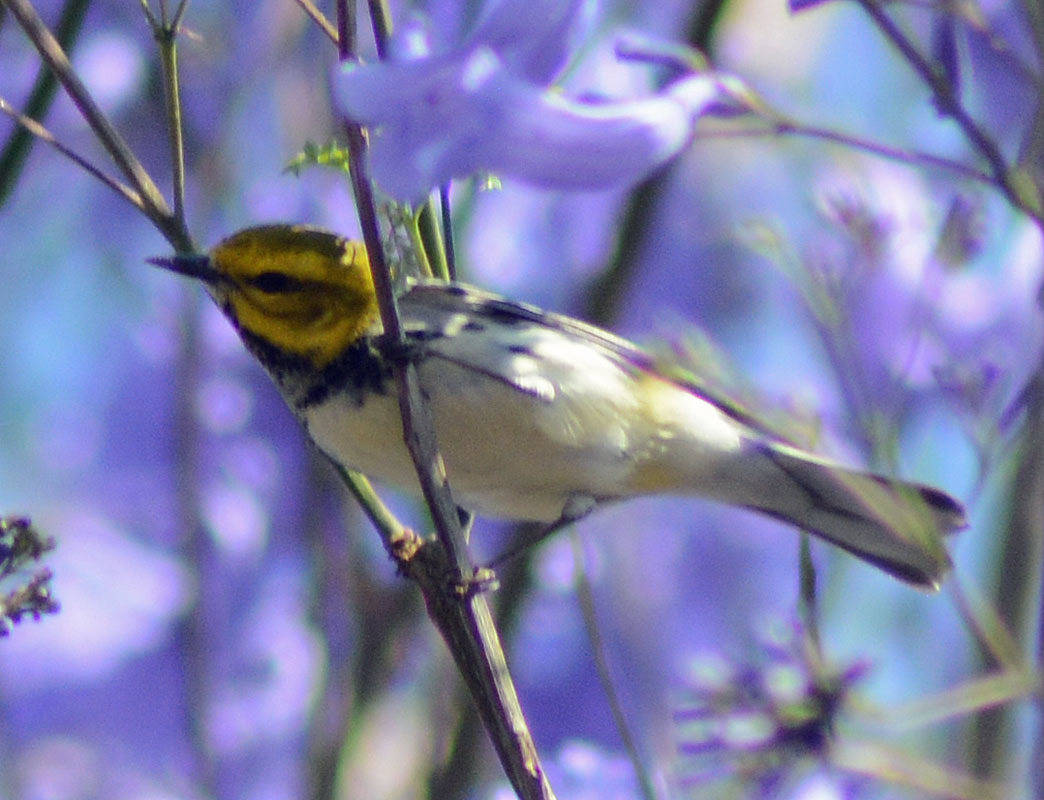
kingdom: Animalia
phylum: Chordata
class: Aves
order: Passeriformes
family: Parulidae
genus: Setophaga
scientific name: Setophaga virens
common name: Black-throated green warbler
